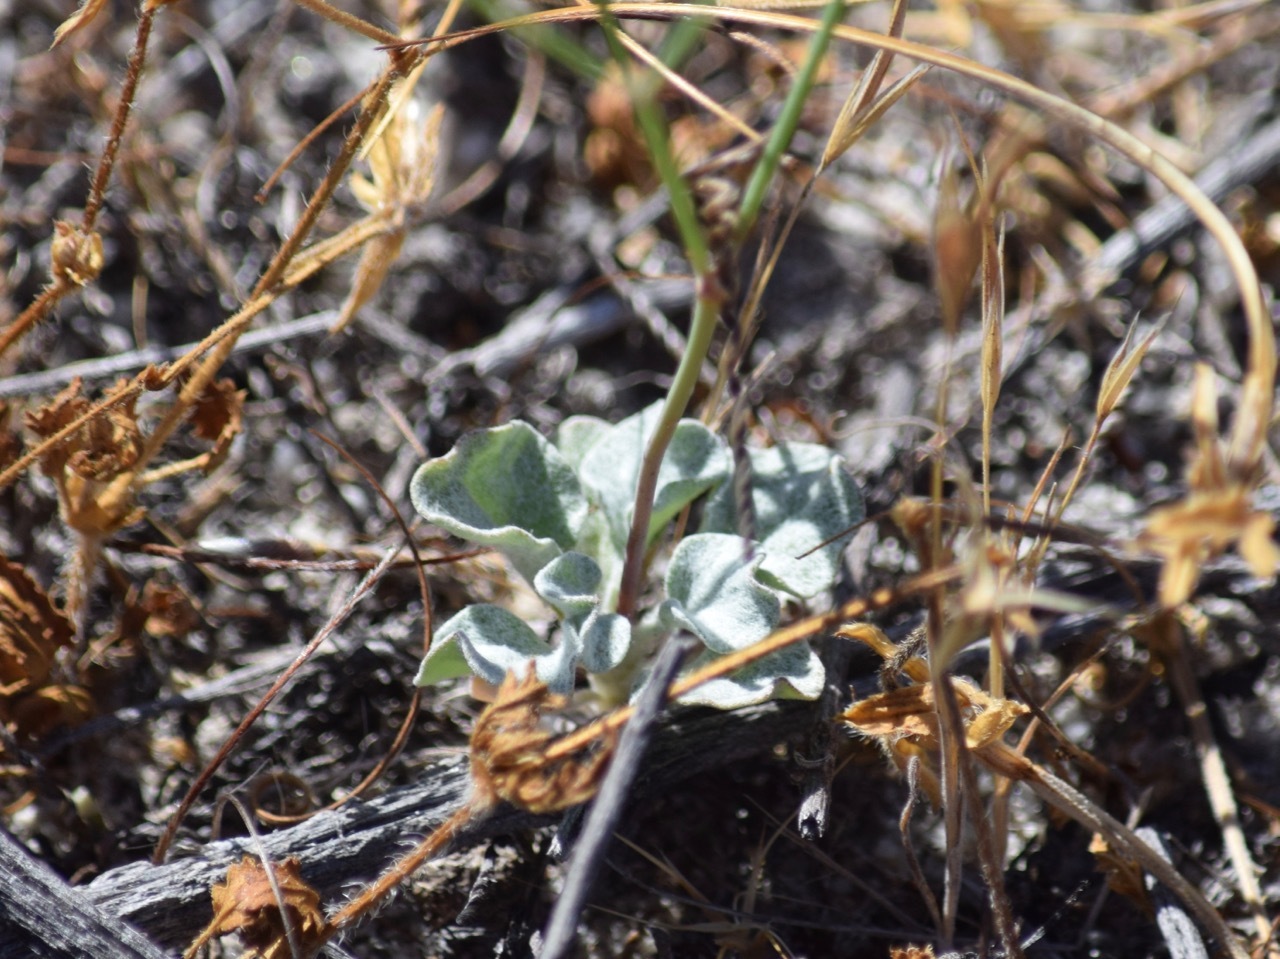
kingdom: Plantae
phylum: Tracheophyta
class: Magnoliopsida
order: Caryophyllales
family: Polygonaceae
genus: Eriogonum
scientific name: Eriogonum elegans
